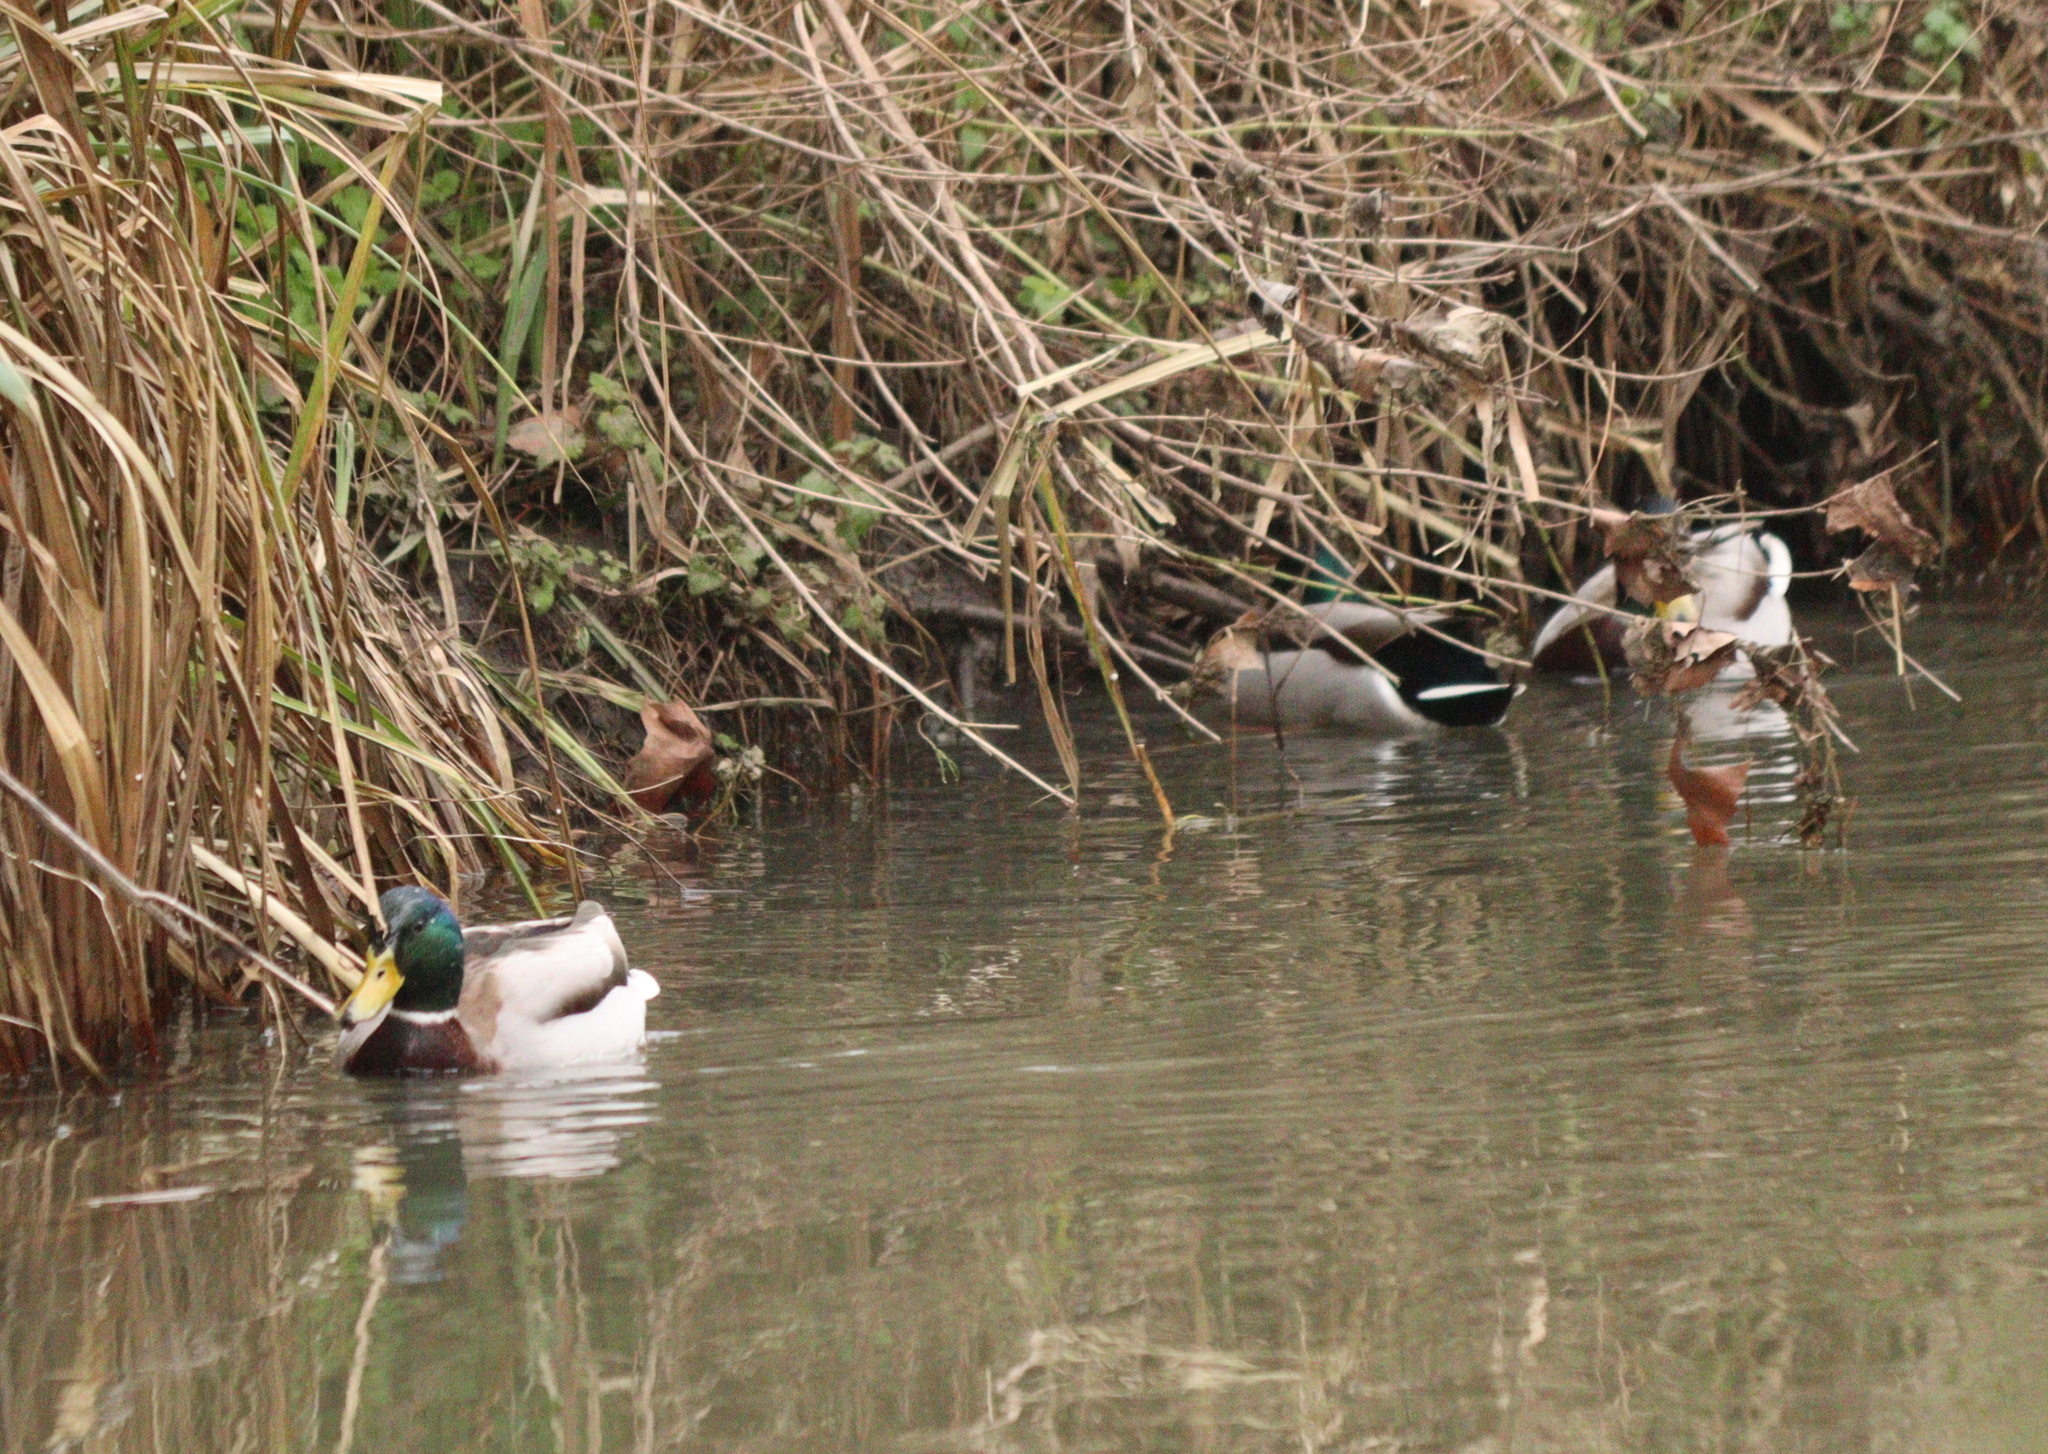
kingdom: Animalia
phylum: Chordata
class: Aves
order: Anseriformes
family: Anatidae
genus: Anas
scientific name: Anas platyrhynchos
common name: Mallard
